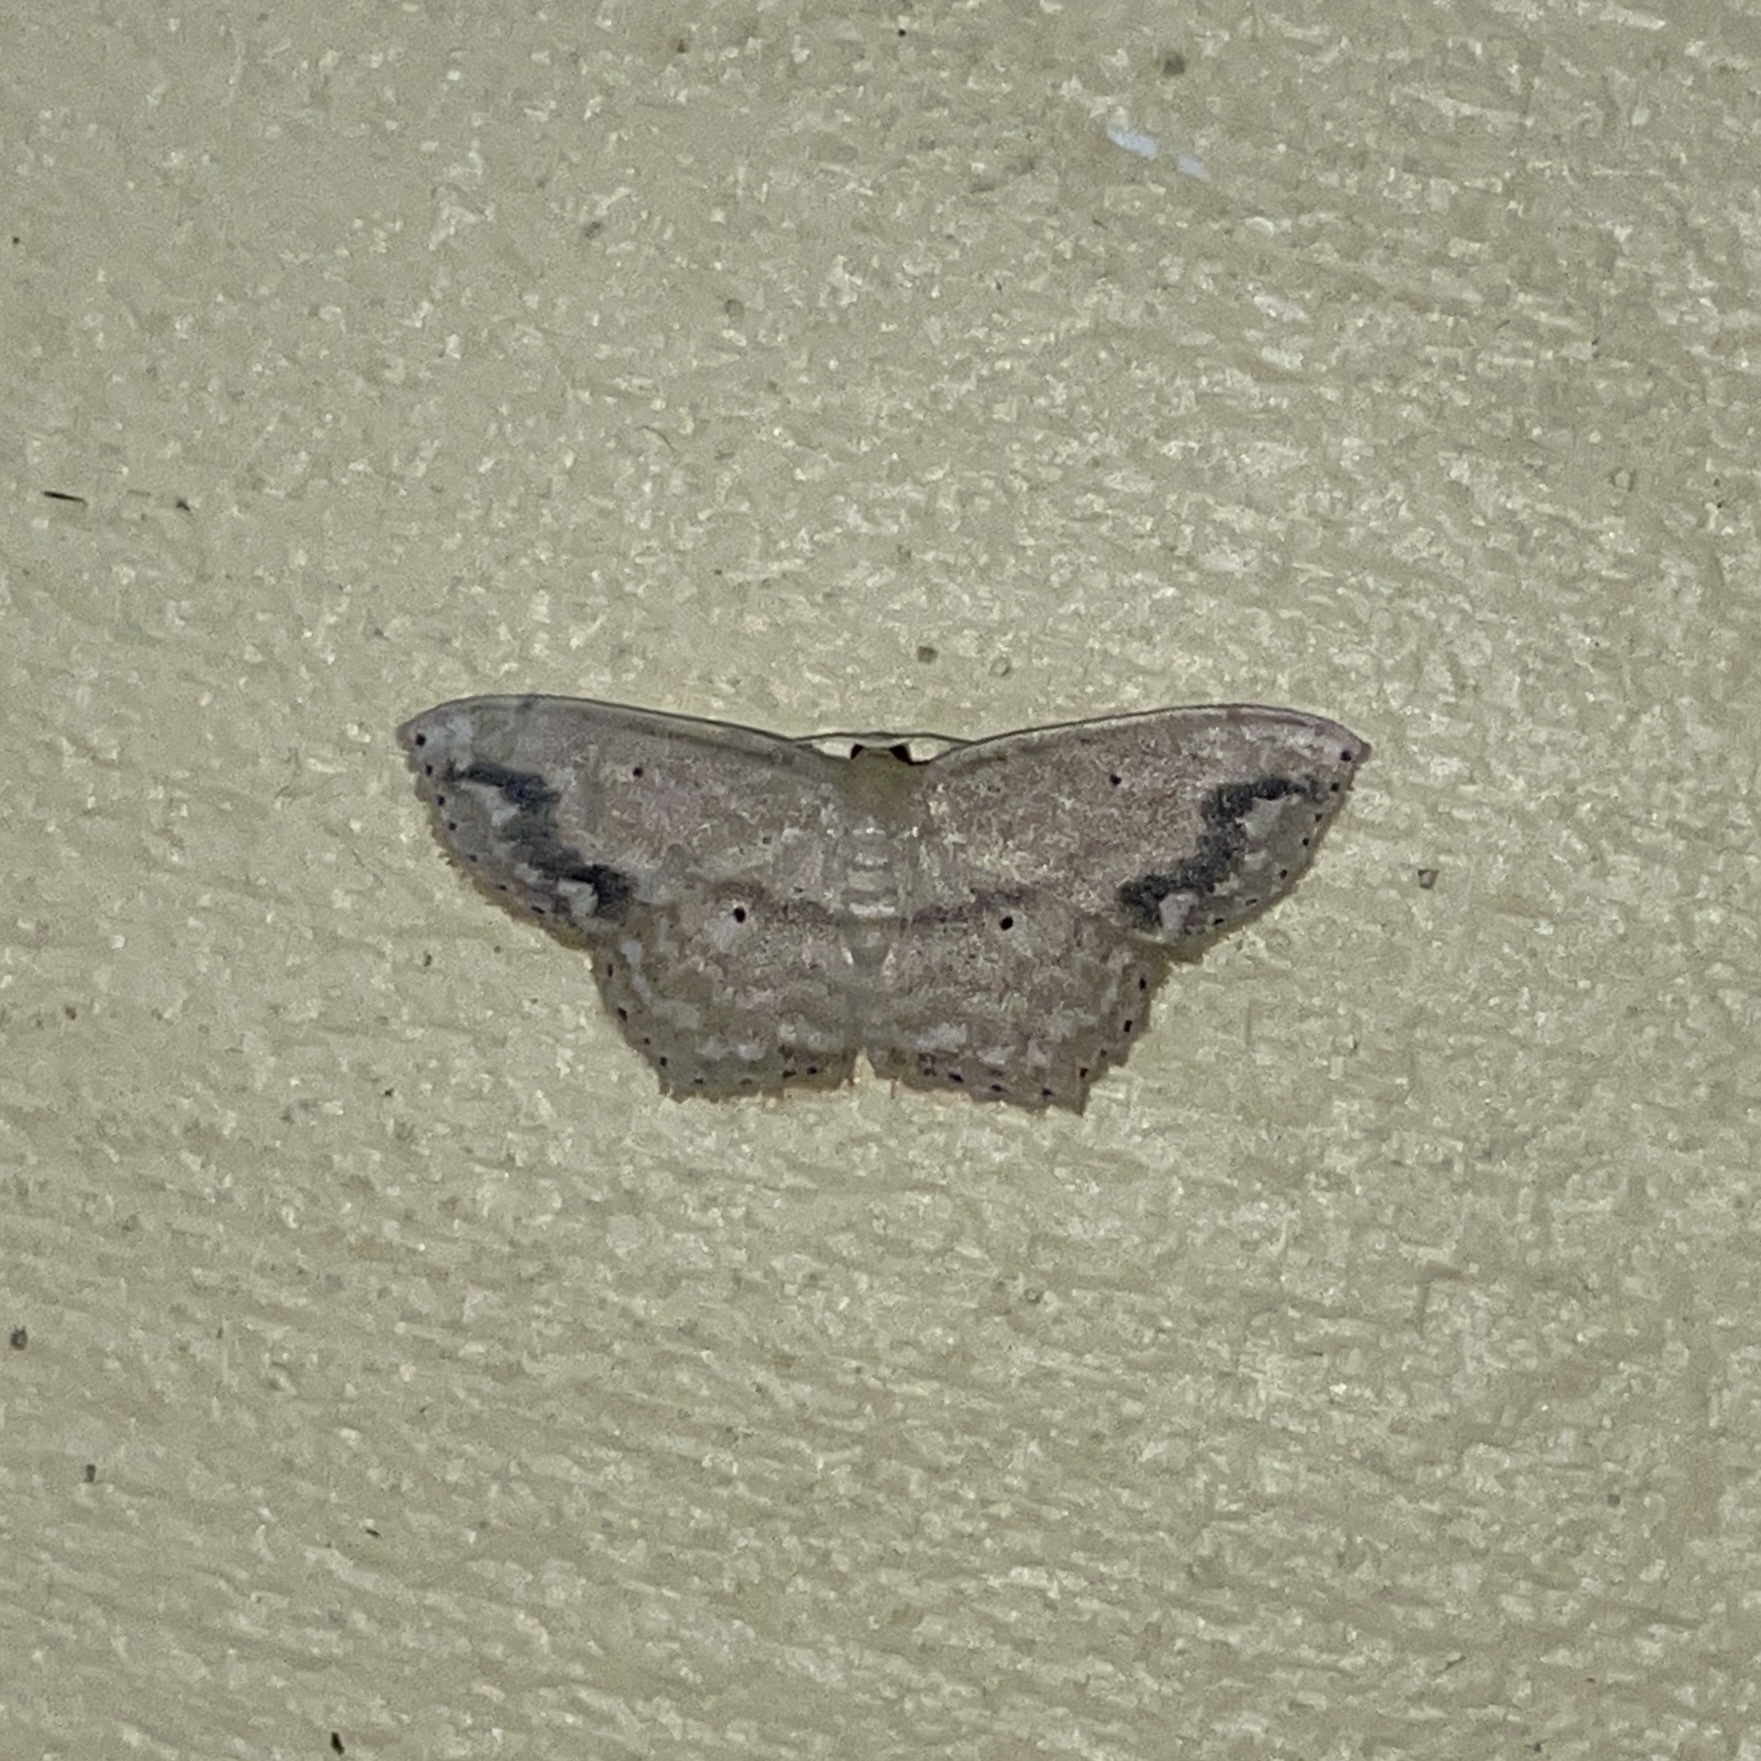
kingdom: Animalia
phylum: Arthropoda
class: Insecta
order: Lepidoptera
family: Geometridae
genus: Scopula
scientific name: Scopula subquadrata
